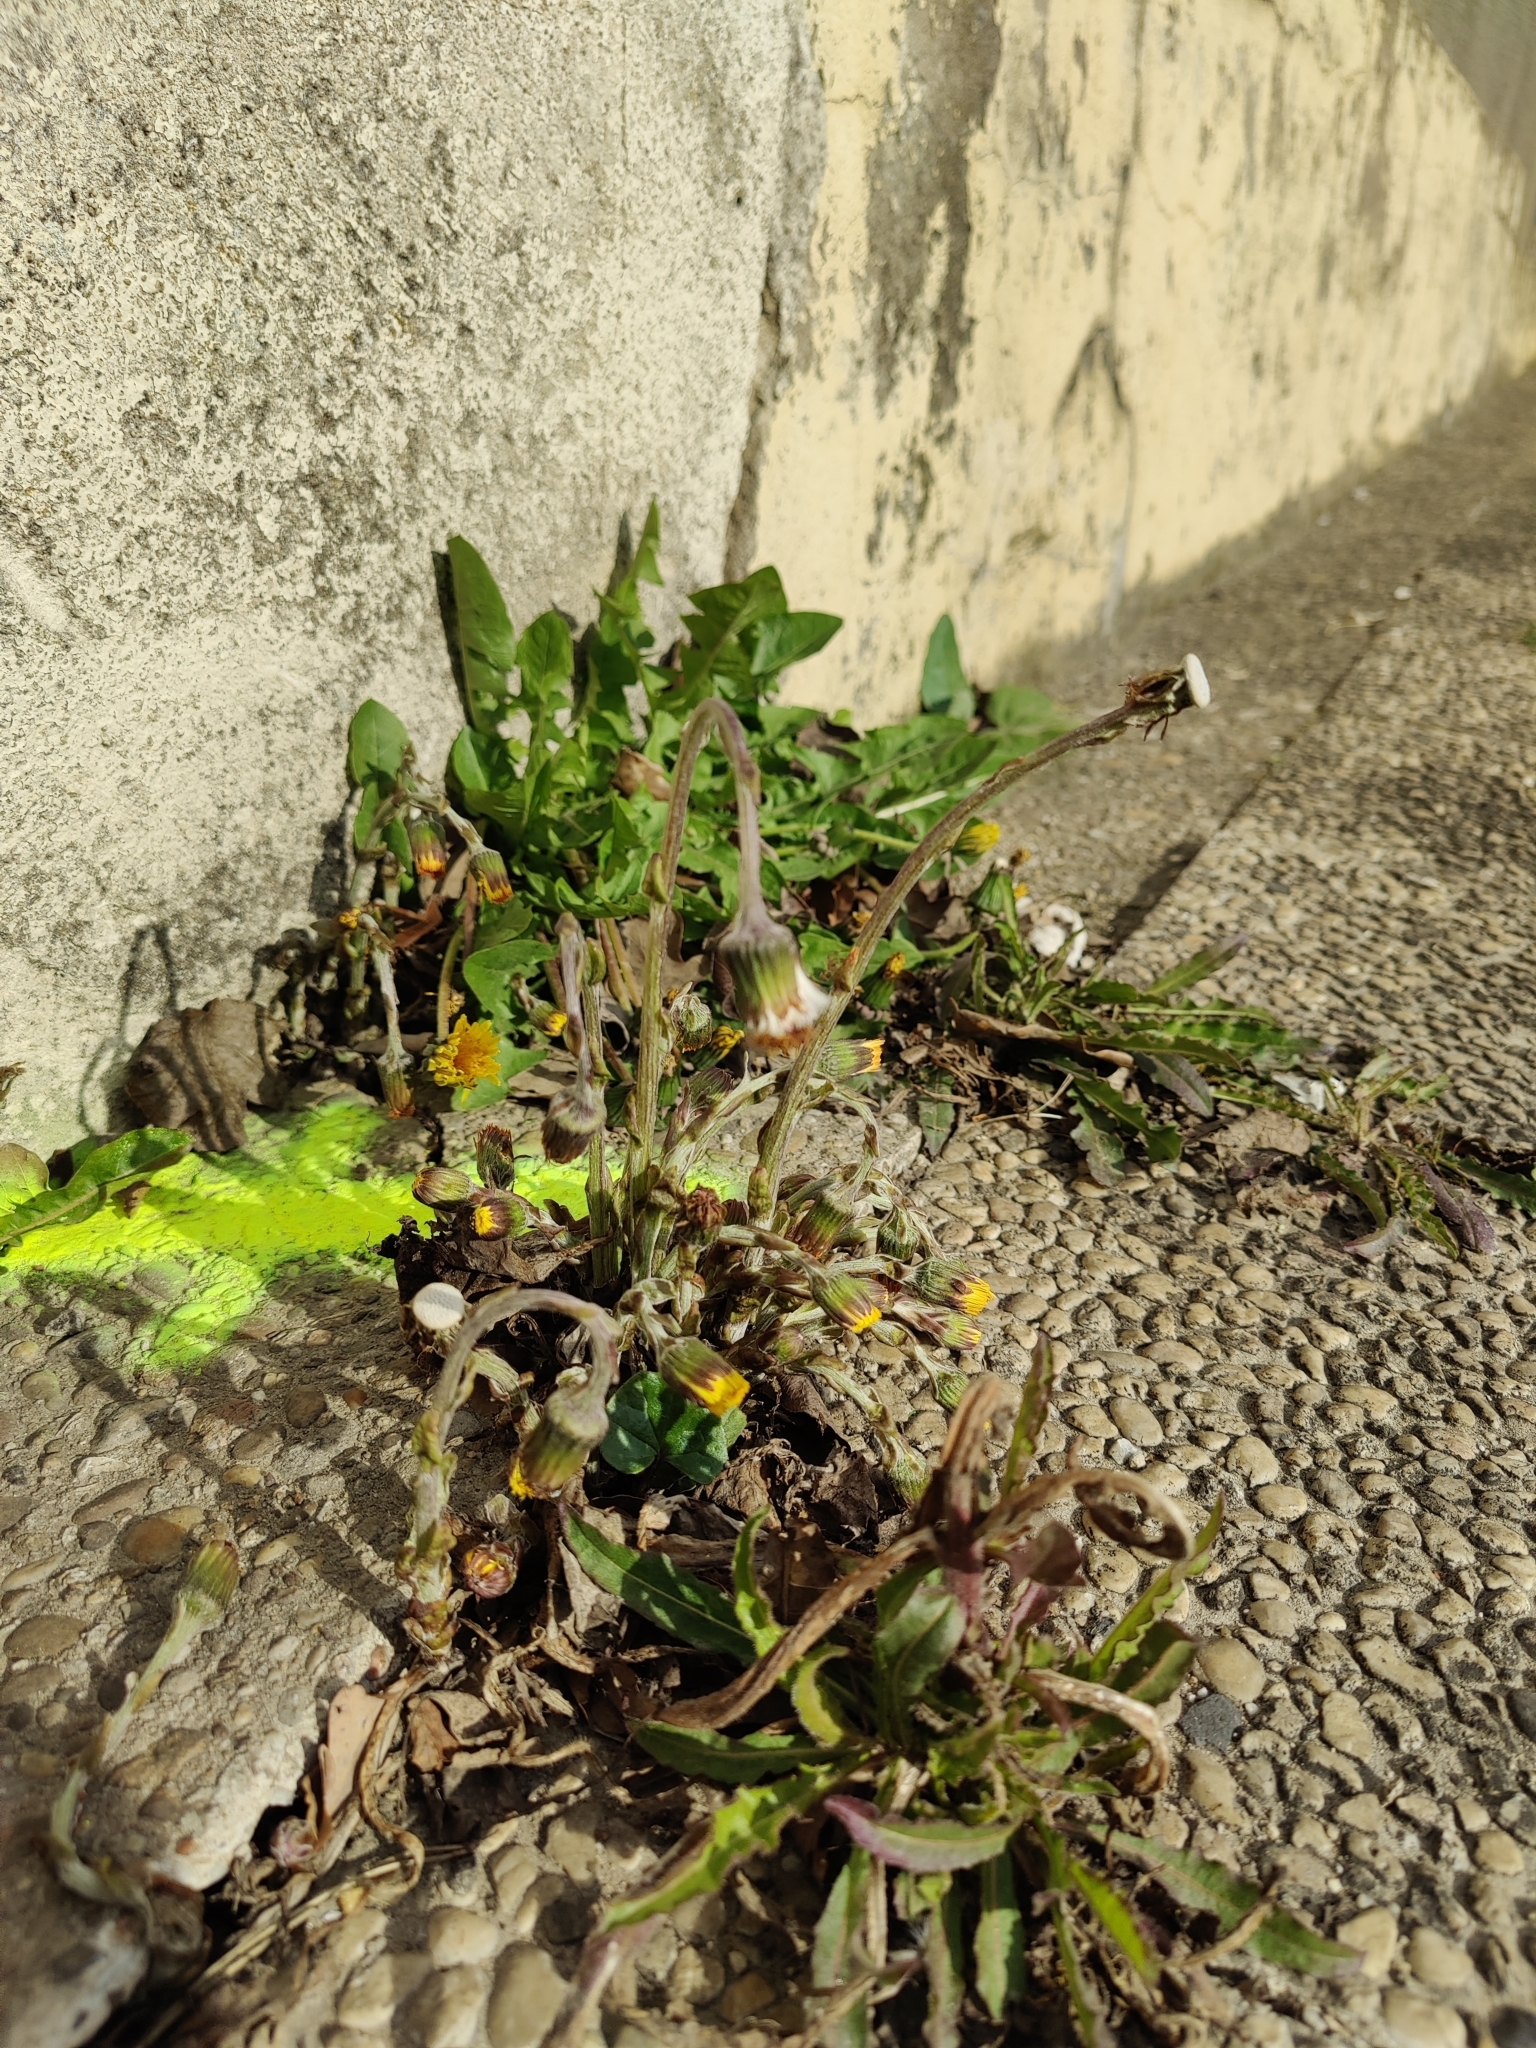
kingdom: Plantae
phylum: Tracheophyta
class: Magnoliopsida
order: Asterales
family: Asteraceae
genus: Tussilago
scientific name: Tussilago farfara
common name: Coltsfoot
